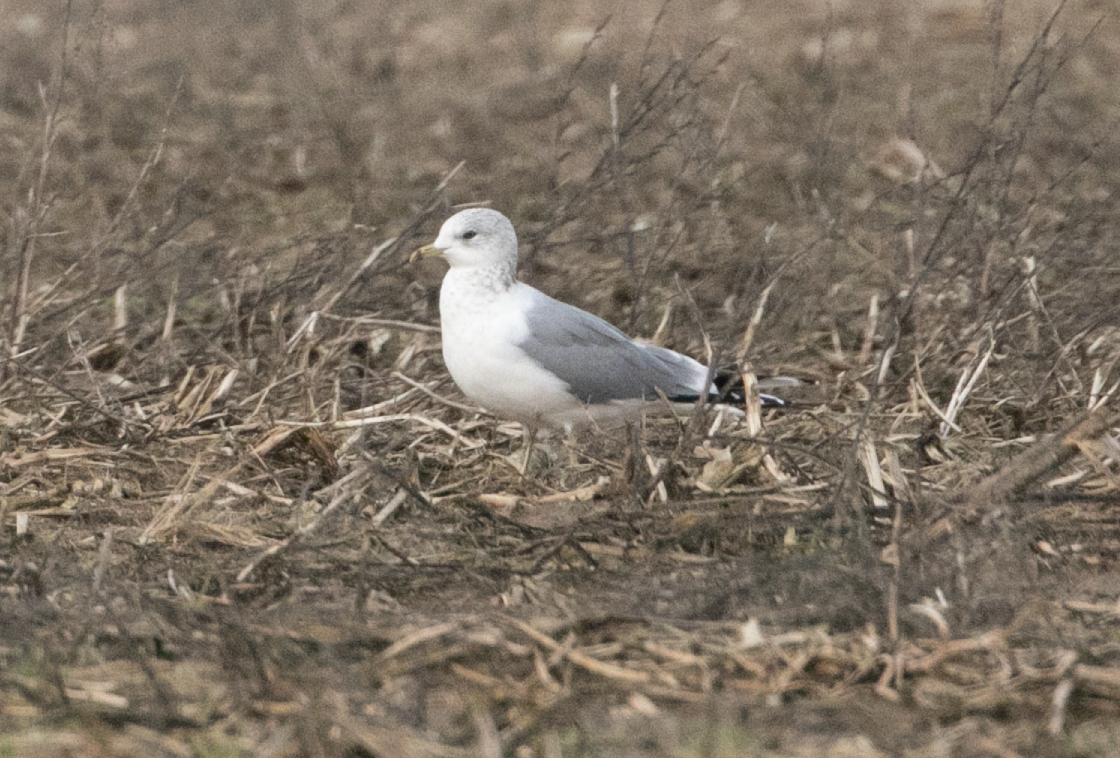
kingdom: Animalia
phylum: Chordata
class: Aves
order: Charadriiformes
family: Laridae
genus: Larus
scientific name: Larus canus
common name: Mew gull
